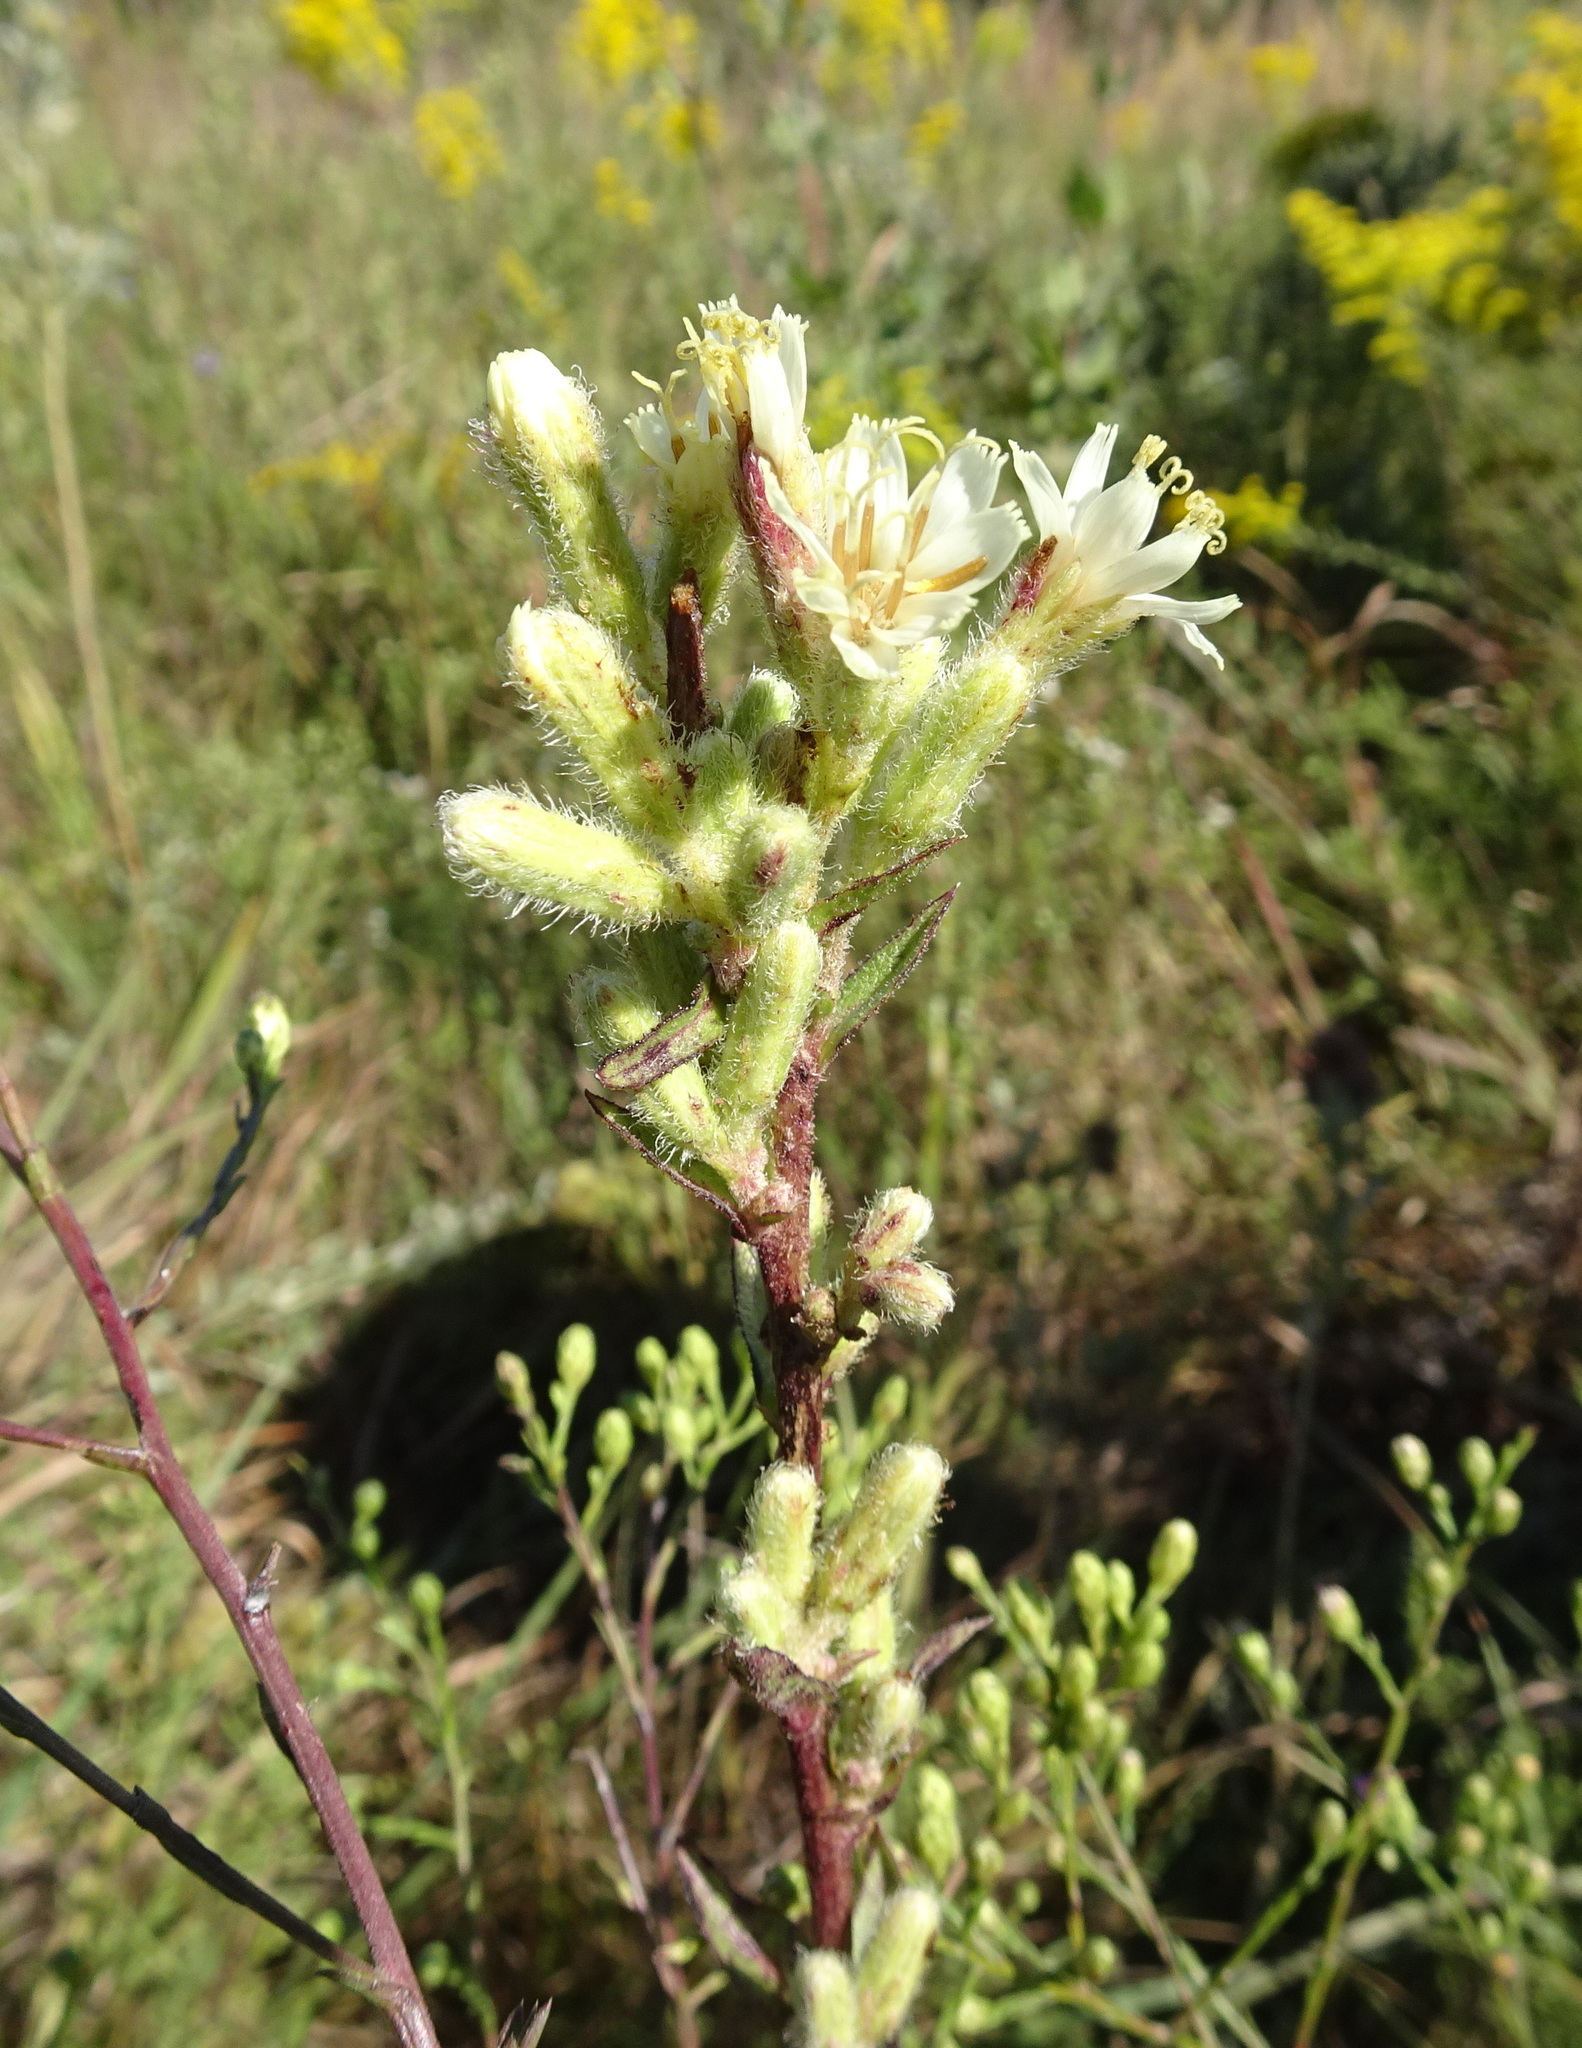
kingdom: Plantae
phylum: Tracheophyta
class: Magnoliopsida
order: Asterales
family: Asteraceae
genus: Nabalus
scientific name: Nabalus asper
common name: Rough rattlesnakeroot
